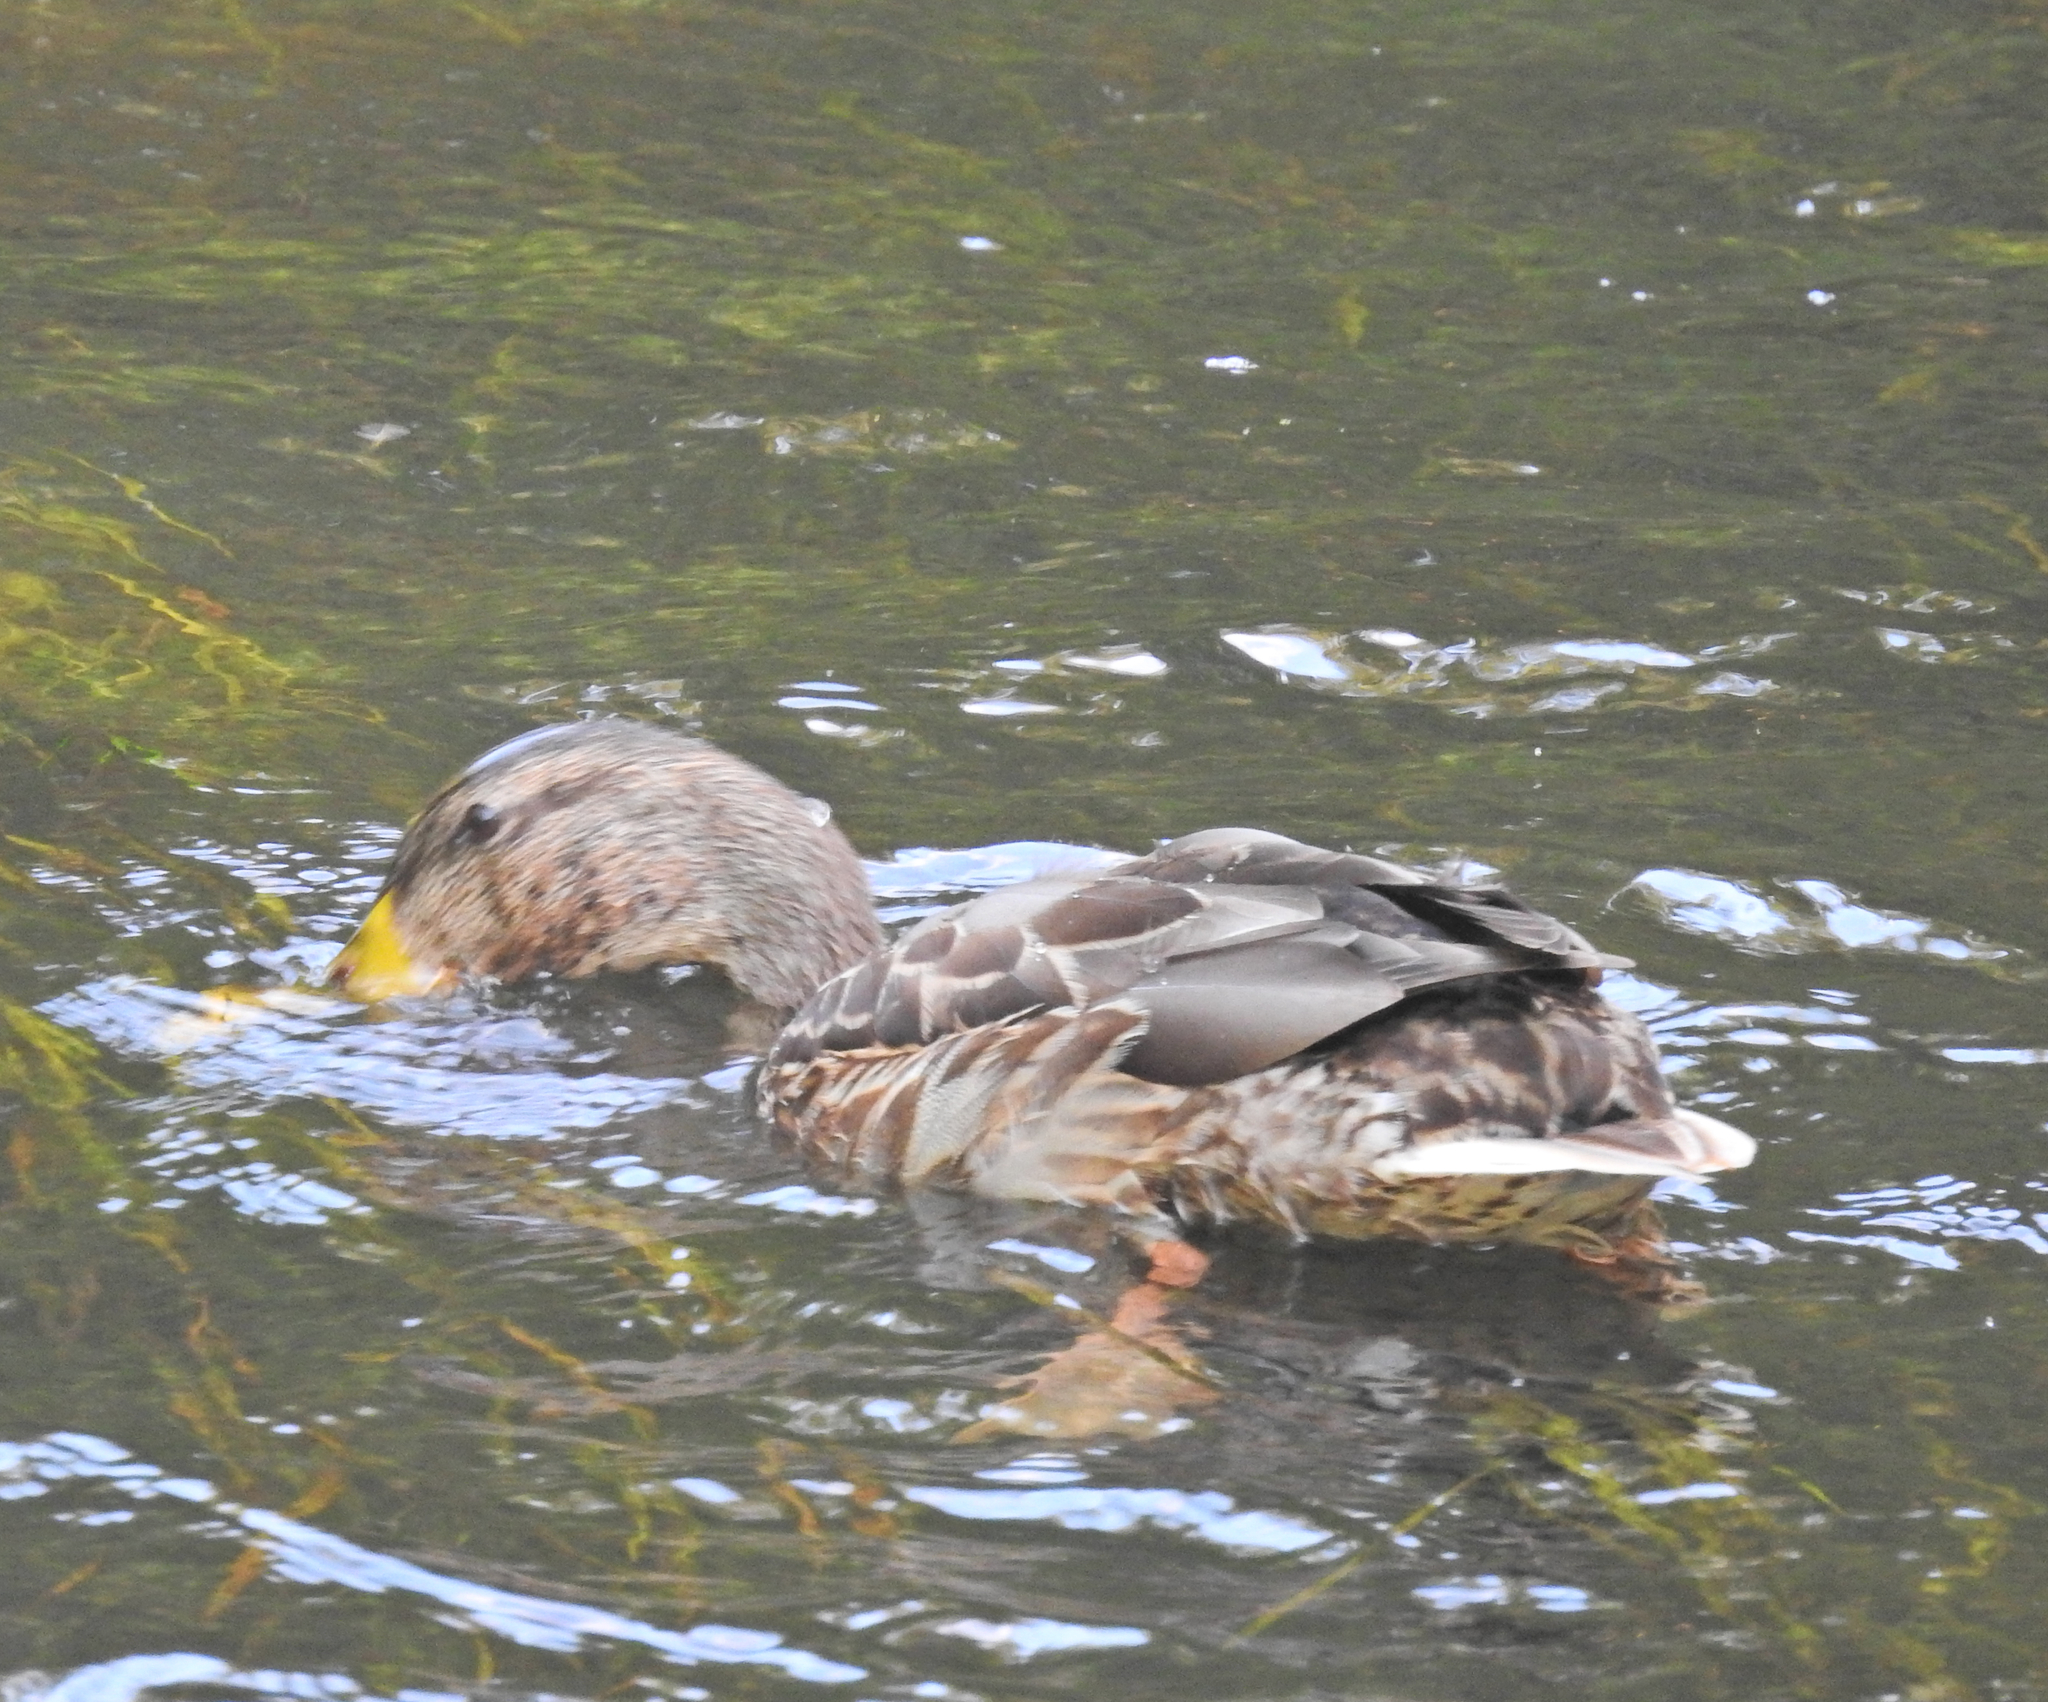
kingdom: Animalia
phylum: Chordata
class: Aves
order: Anseriformes
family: Anatidae
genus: Anas
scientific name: Anas platyrhynchos
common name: Mallard
